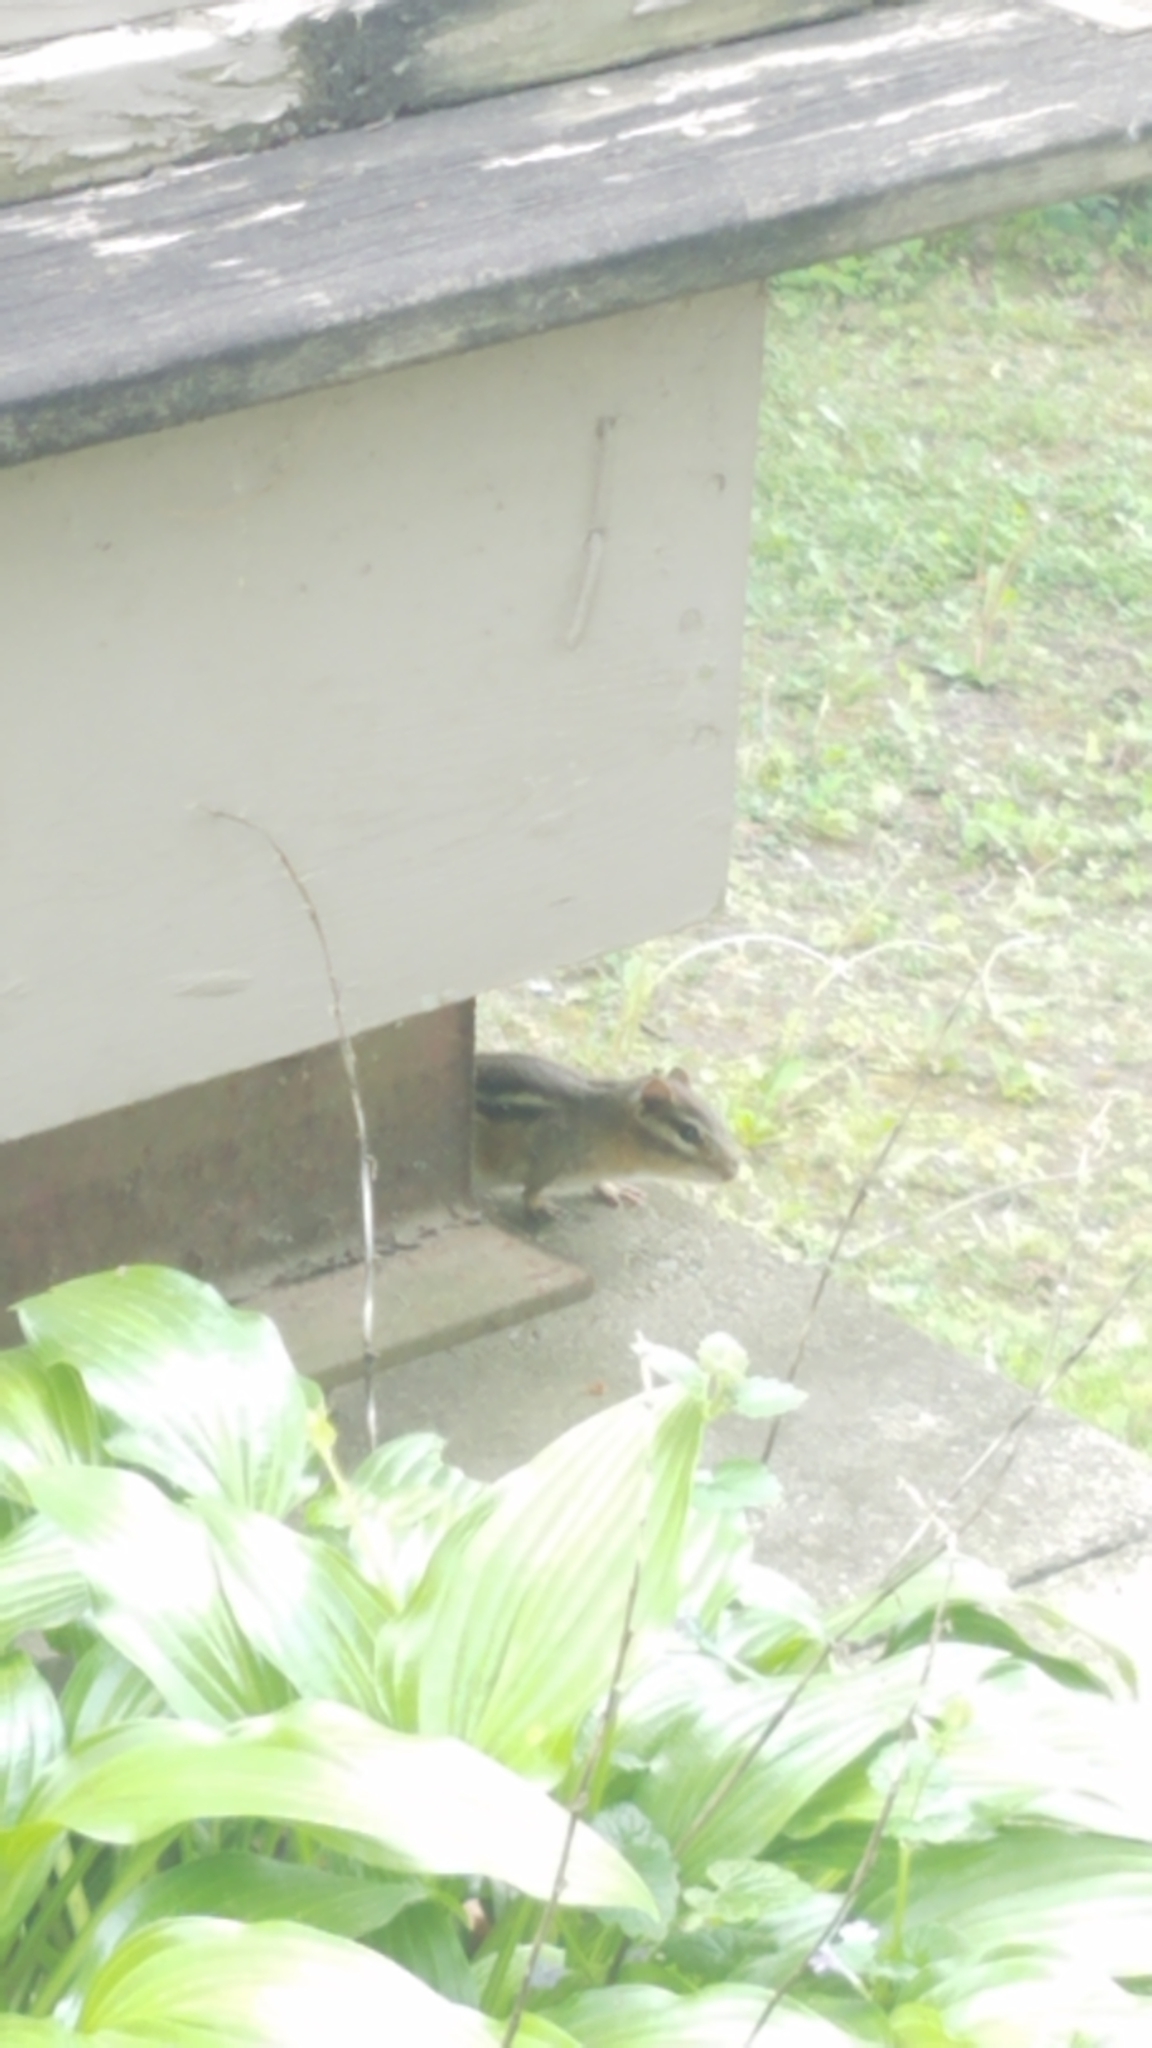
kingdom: Animalia
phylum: Chordata
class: Mammalia
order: Rodentia
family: Sciuridae
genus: Tamias
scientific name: Tamias striatus
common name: Eastern chipmunk
